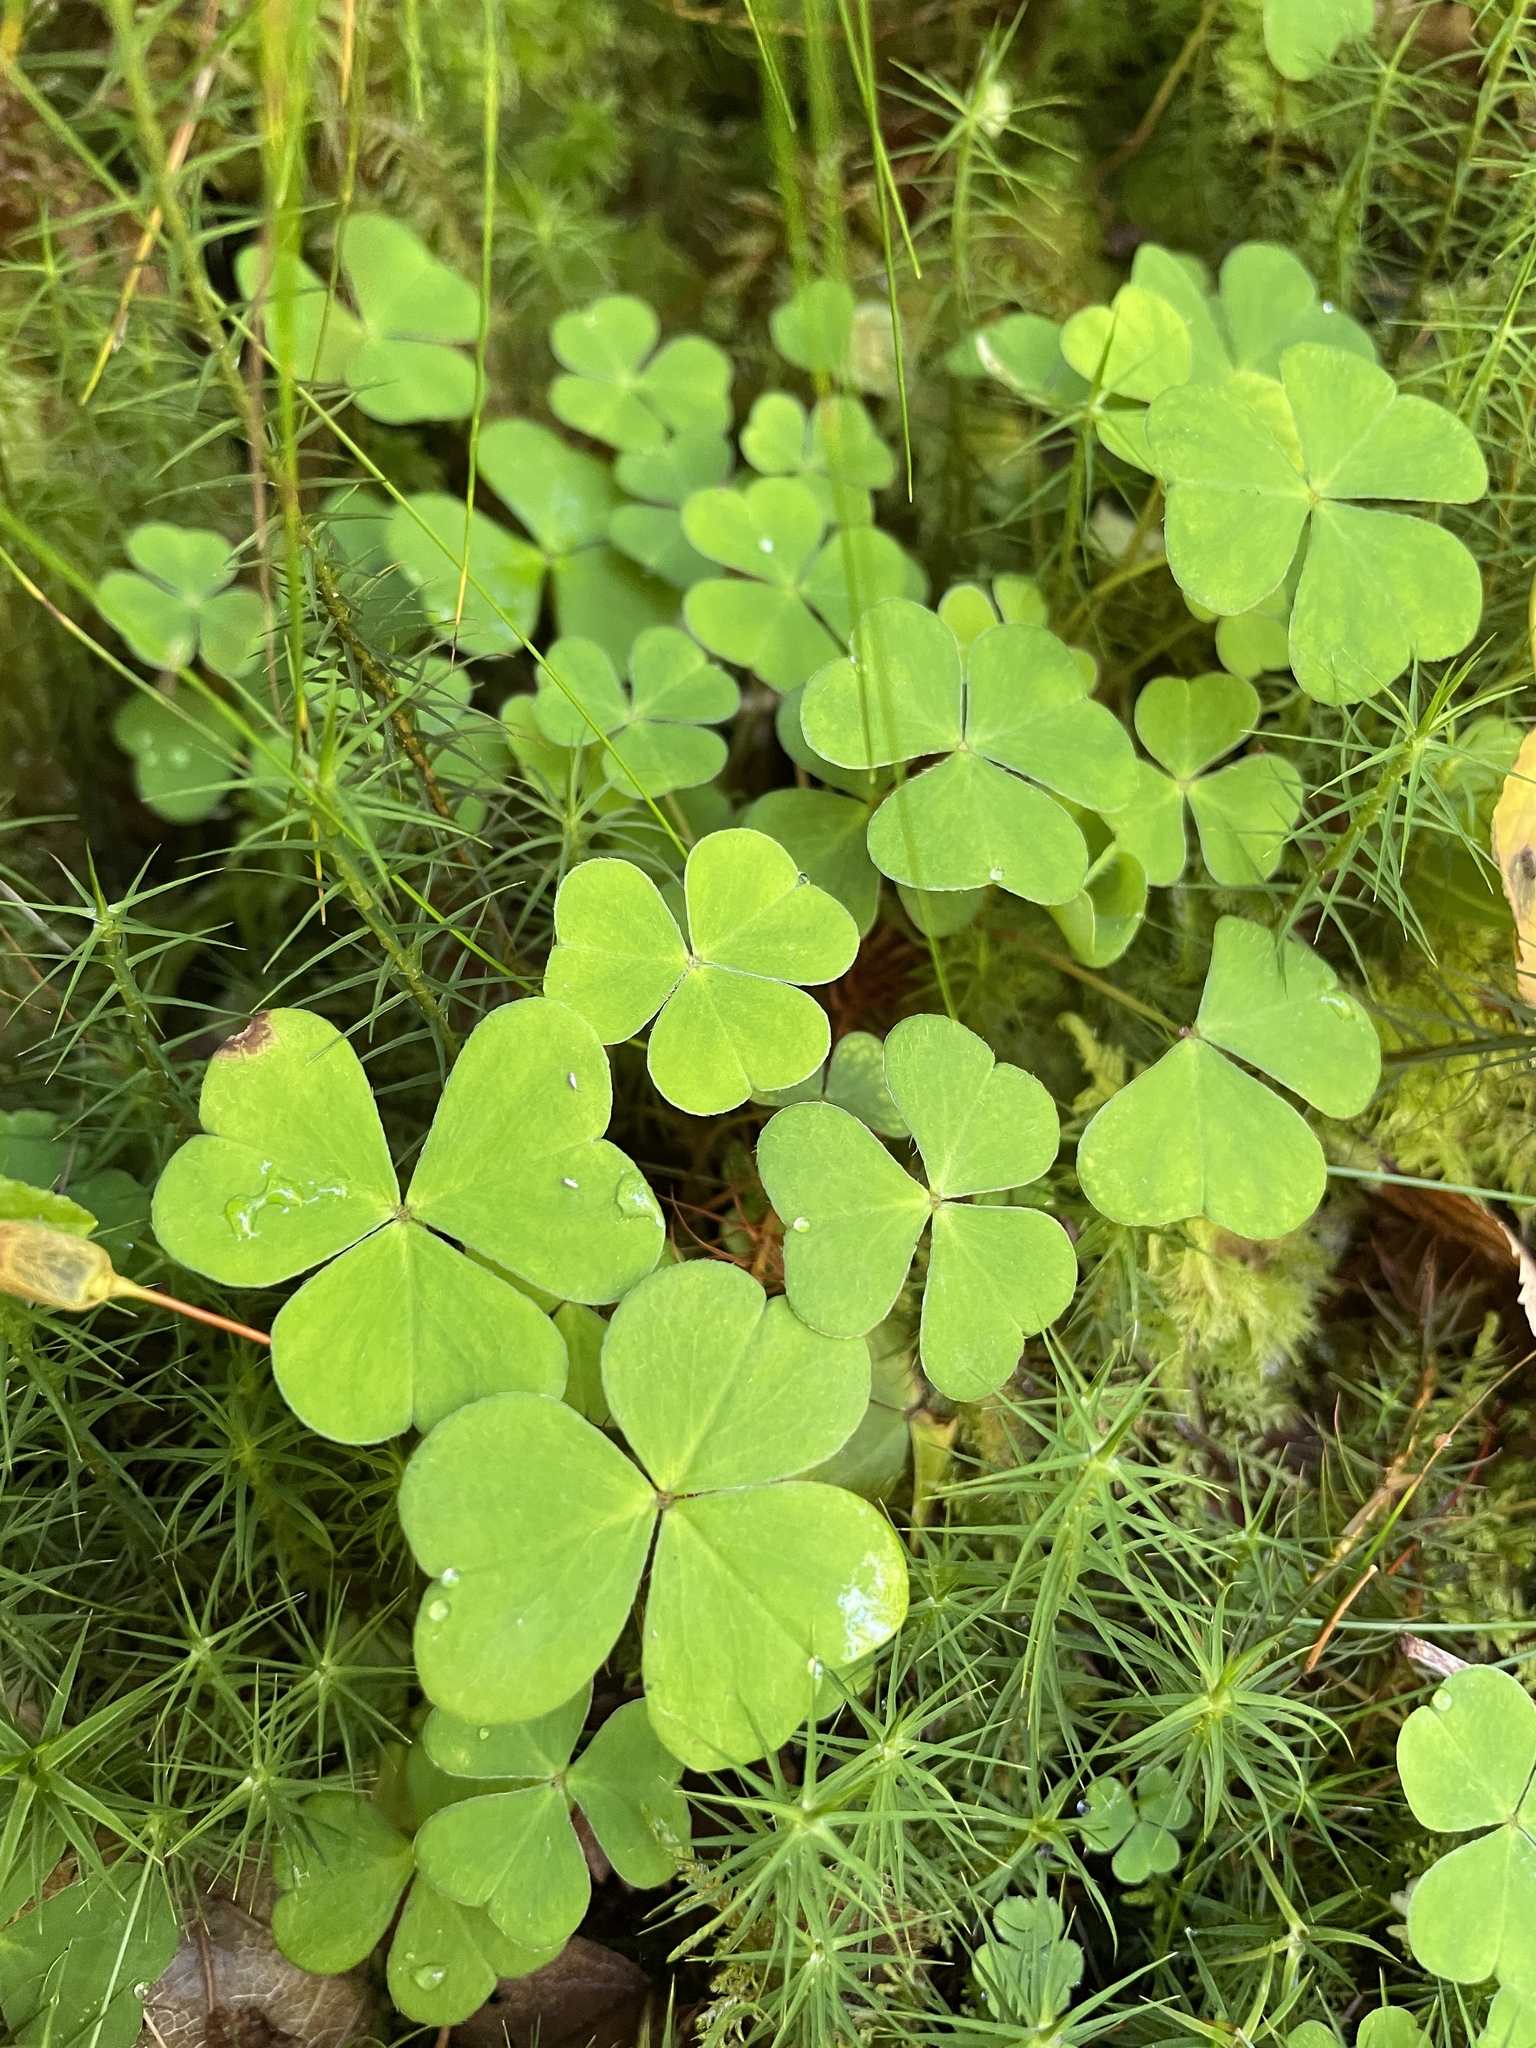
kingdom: Plantae
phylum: Tracheophyta
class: Magnoliopsida
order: Oxalidales
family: Oxalidaceae
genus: Oxalis
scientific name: Oxalis acetosella
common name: Wood-sorrel
